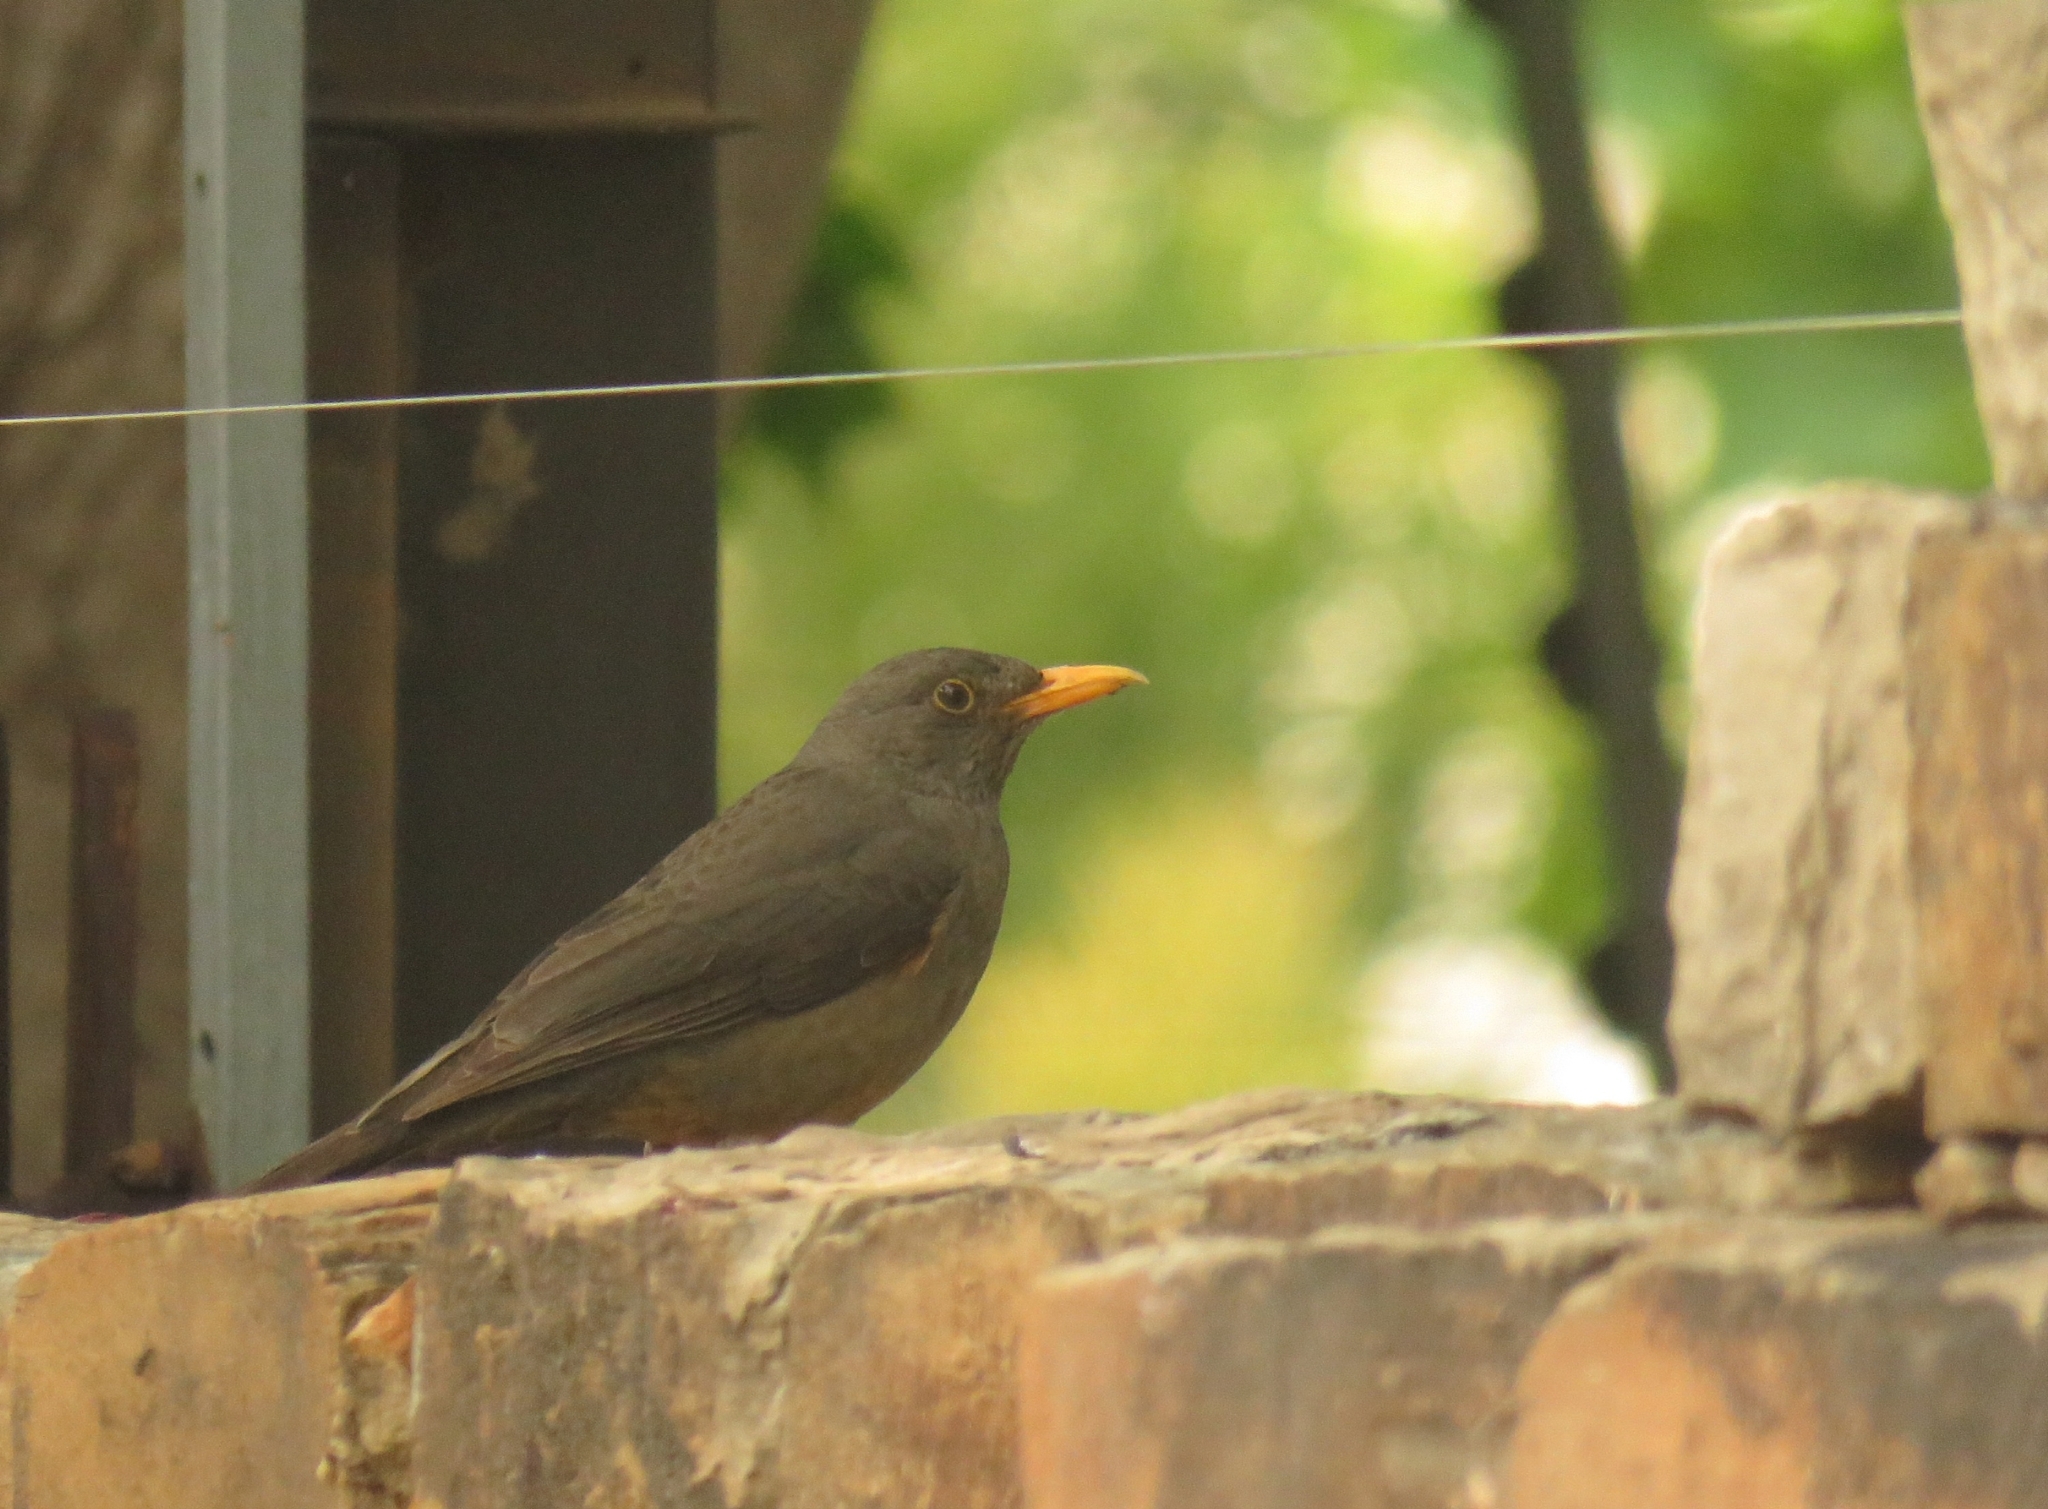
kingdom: Animalia
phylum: Chordata
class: Aves
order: Passeriformes
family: Turdidae
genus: Turdus
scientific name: Turdus smithi
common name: Karoo thrush
